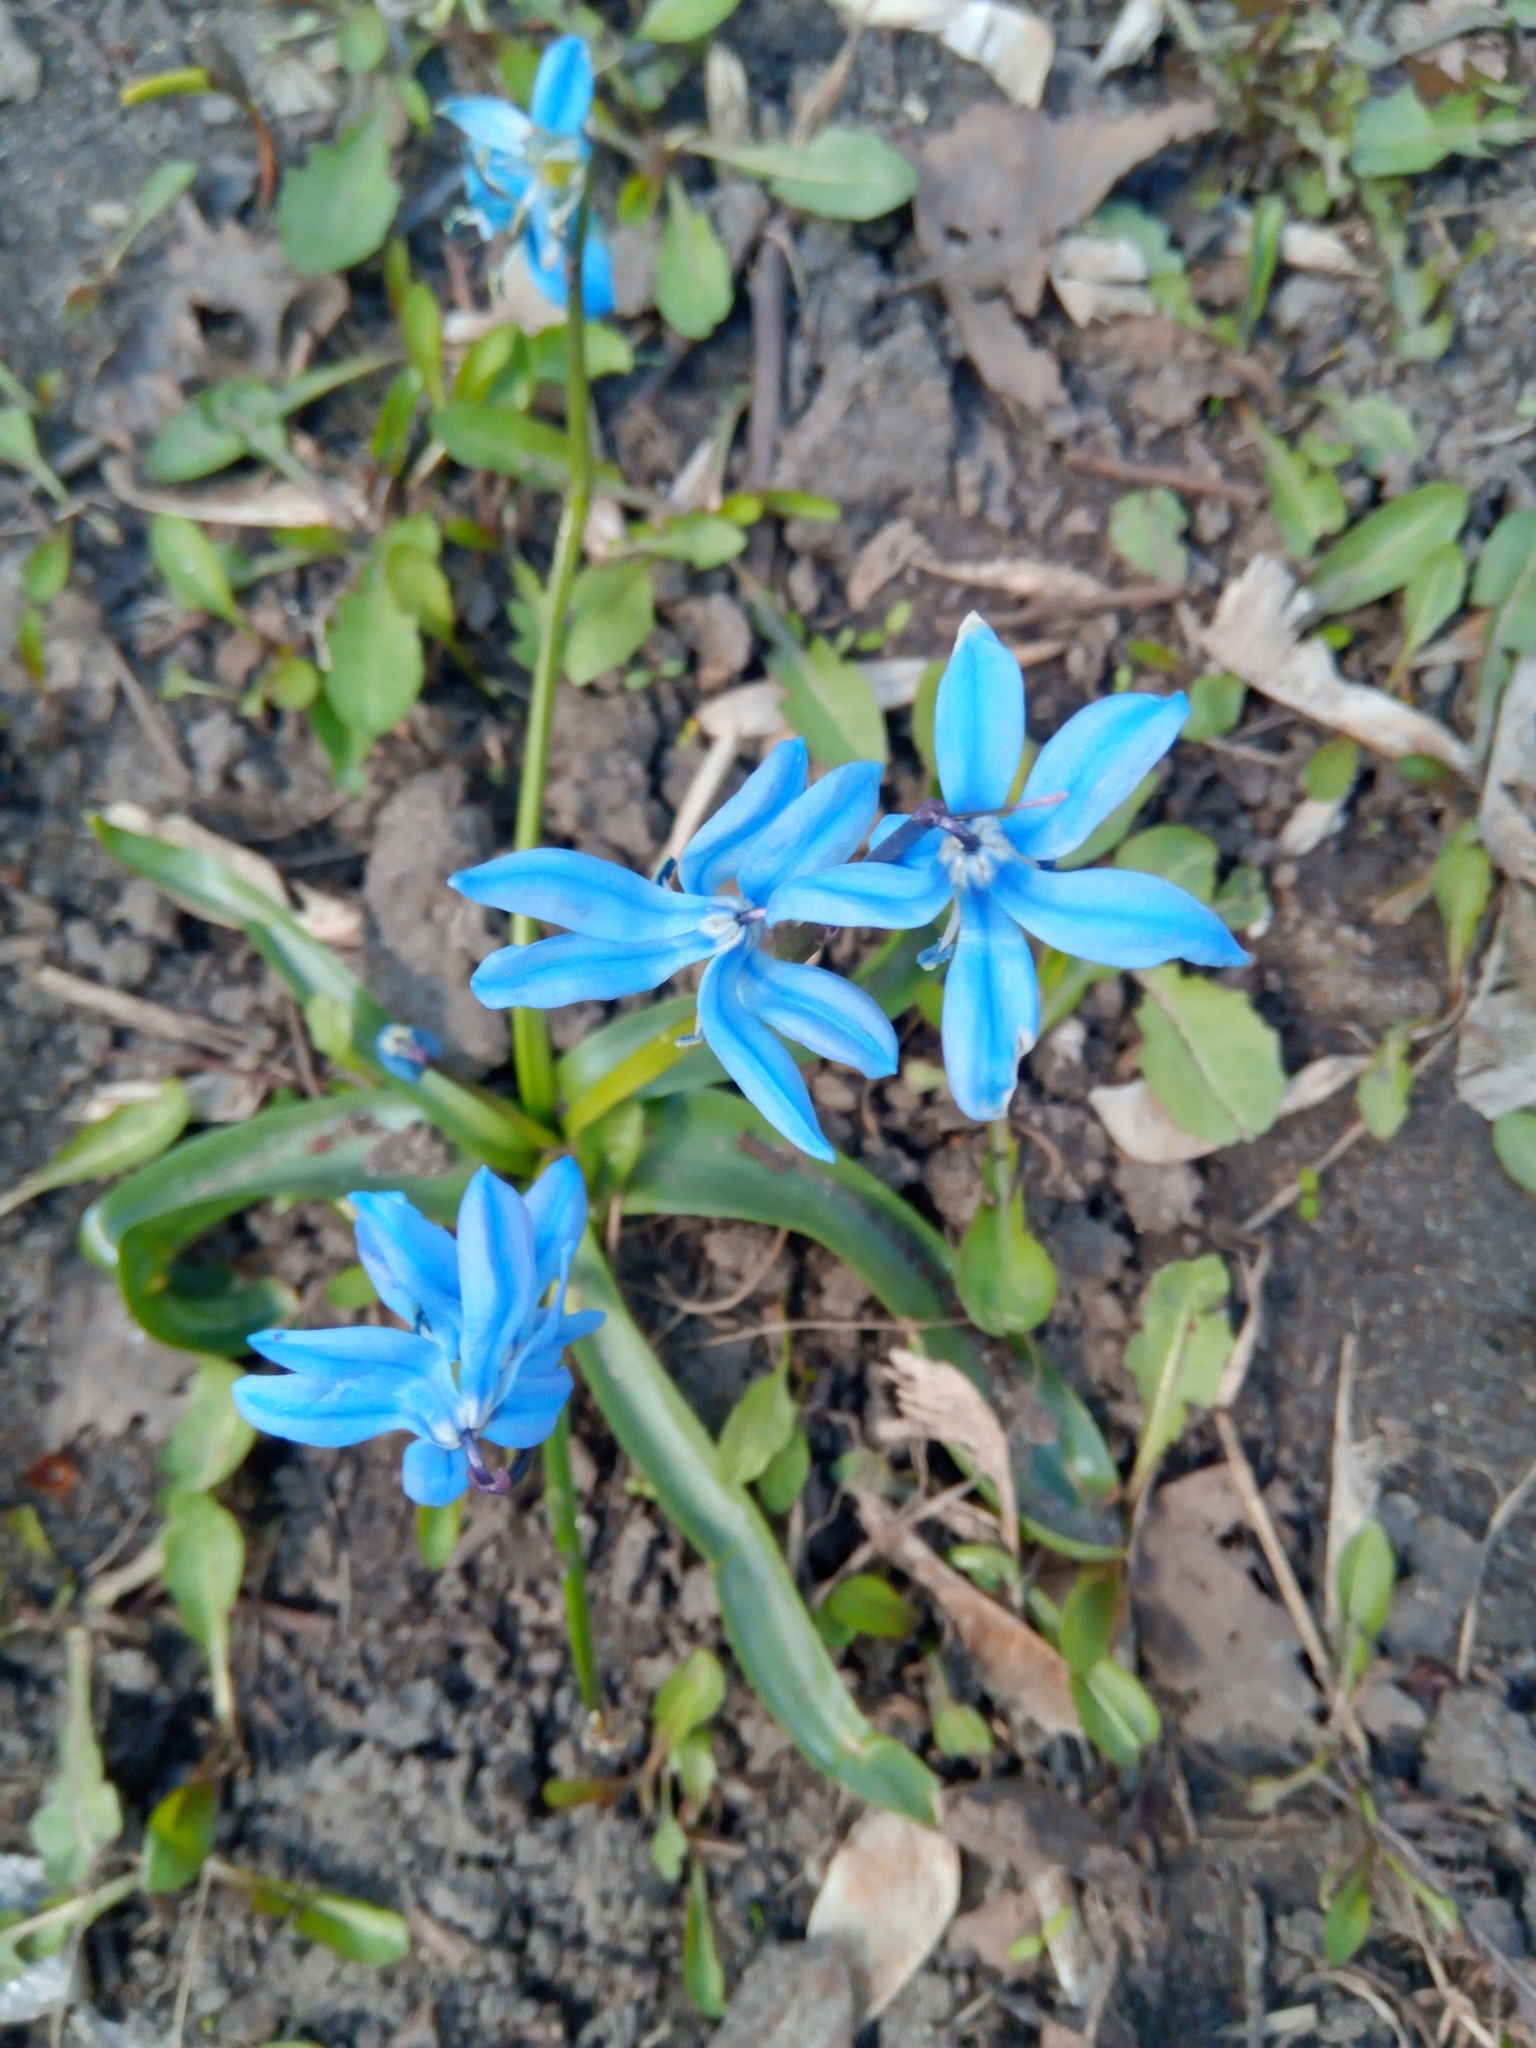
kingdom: Plantae
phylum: Tracheophyta
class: Liliopsida
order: Asparagales
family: Asparagaceae
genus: Scilla
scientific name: Scilla siberica
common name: Siberian squill
